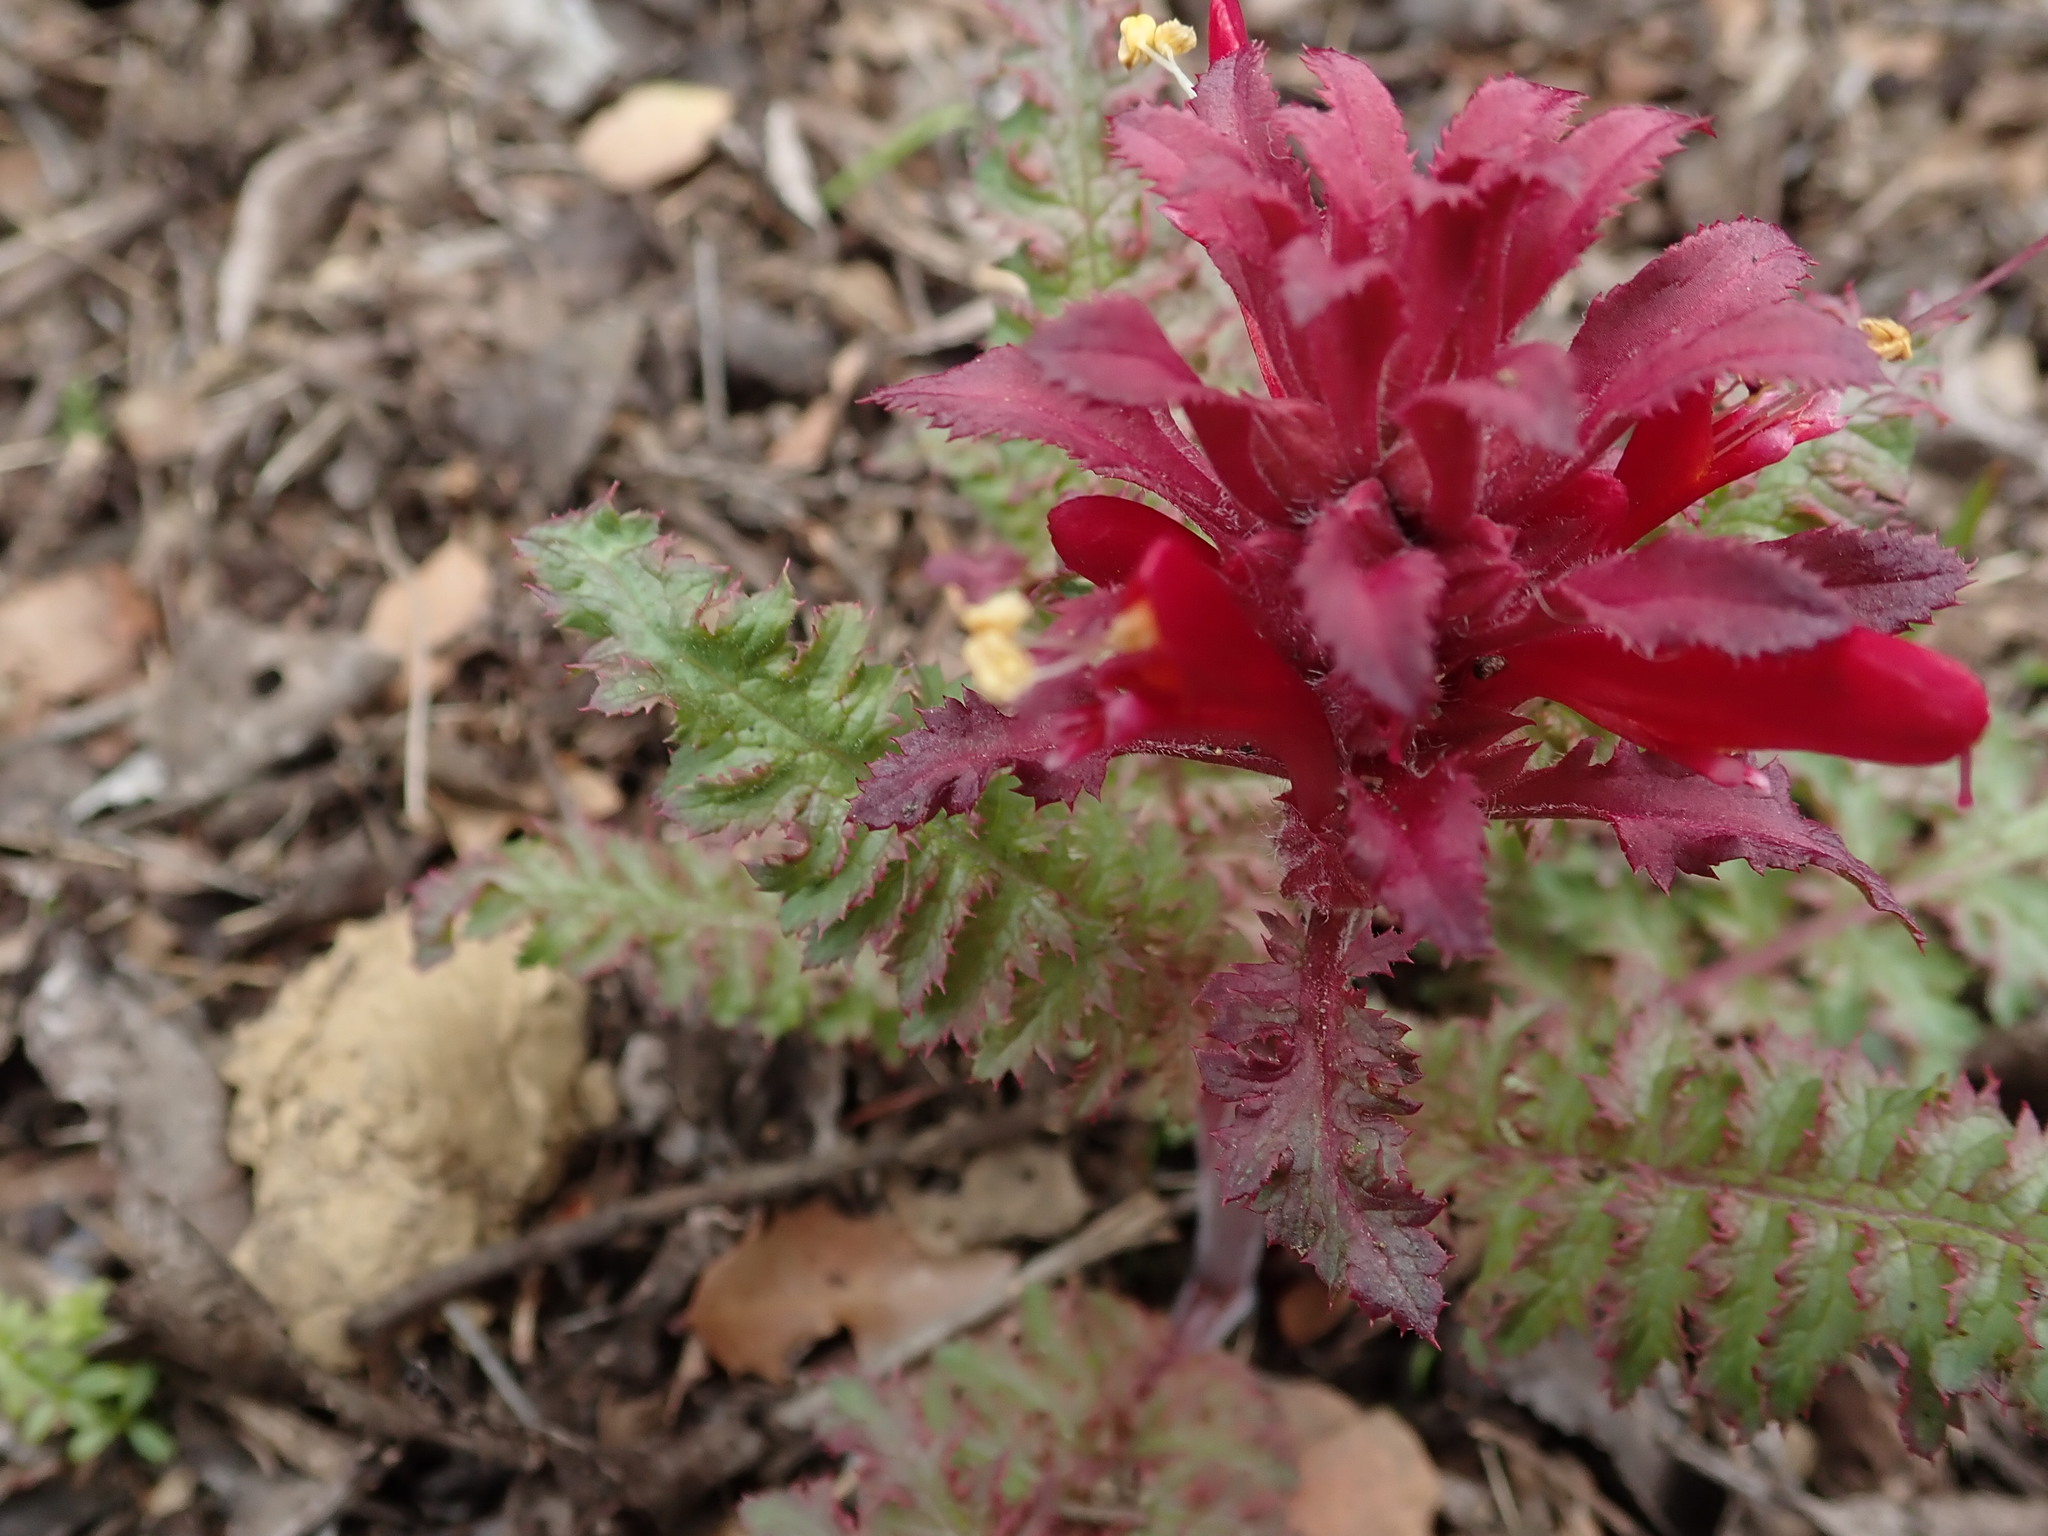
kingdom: Plantae
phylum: Tracheophyta
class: Magnoliopsida
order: Lamiales
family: Orobanchaceae
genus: Pedicularis
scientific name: Pedicularis densiflora
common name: Indian warrior
